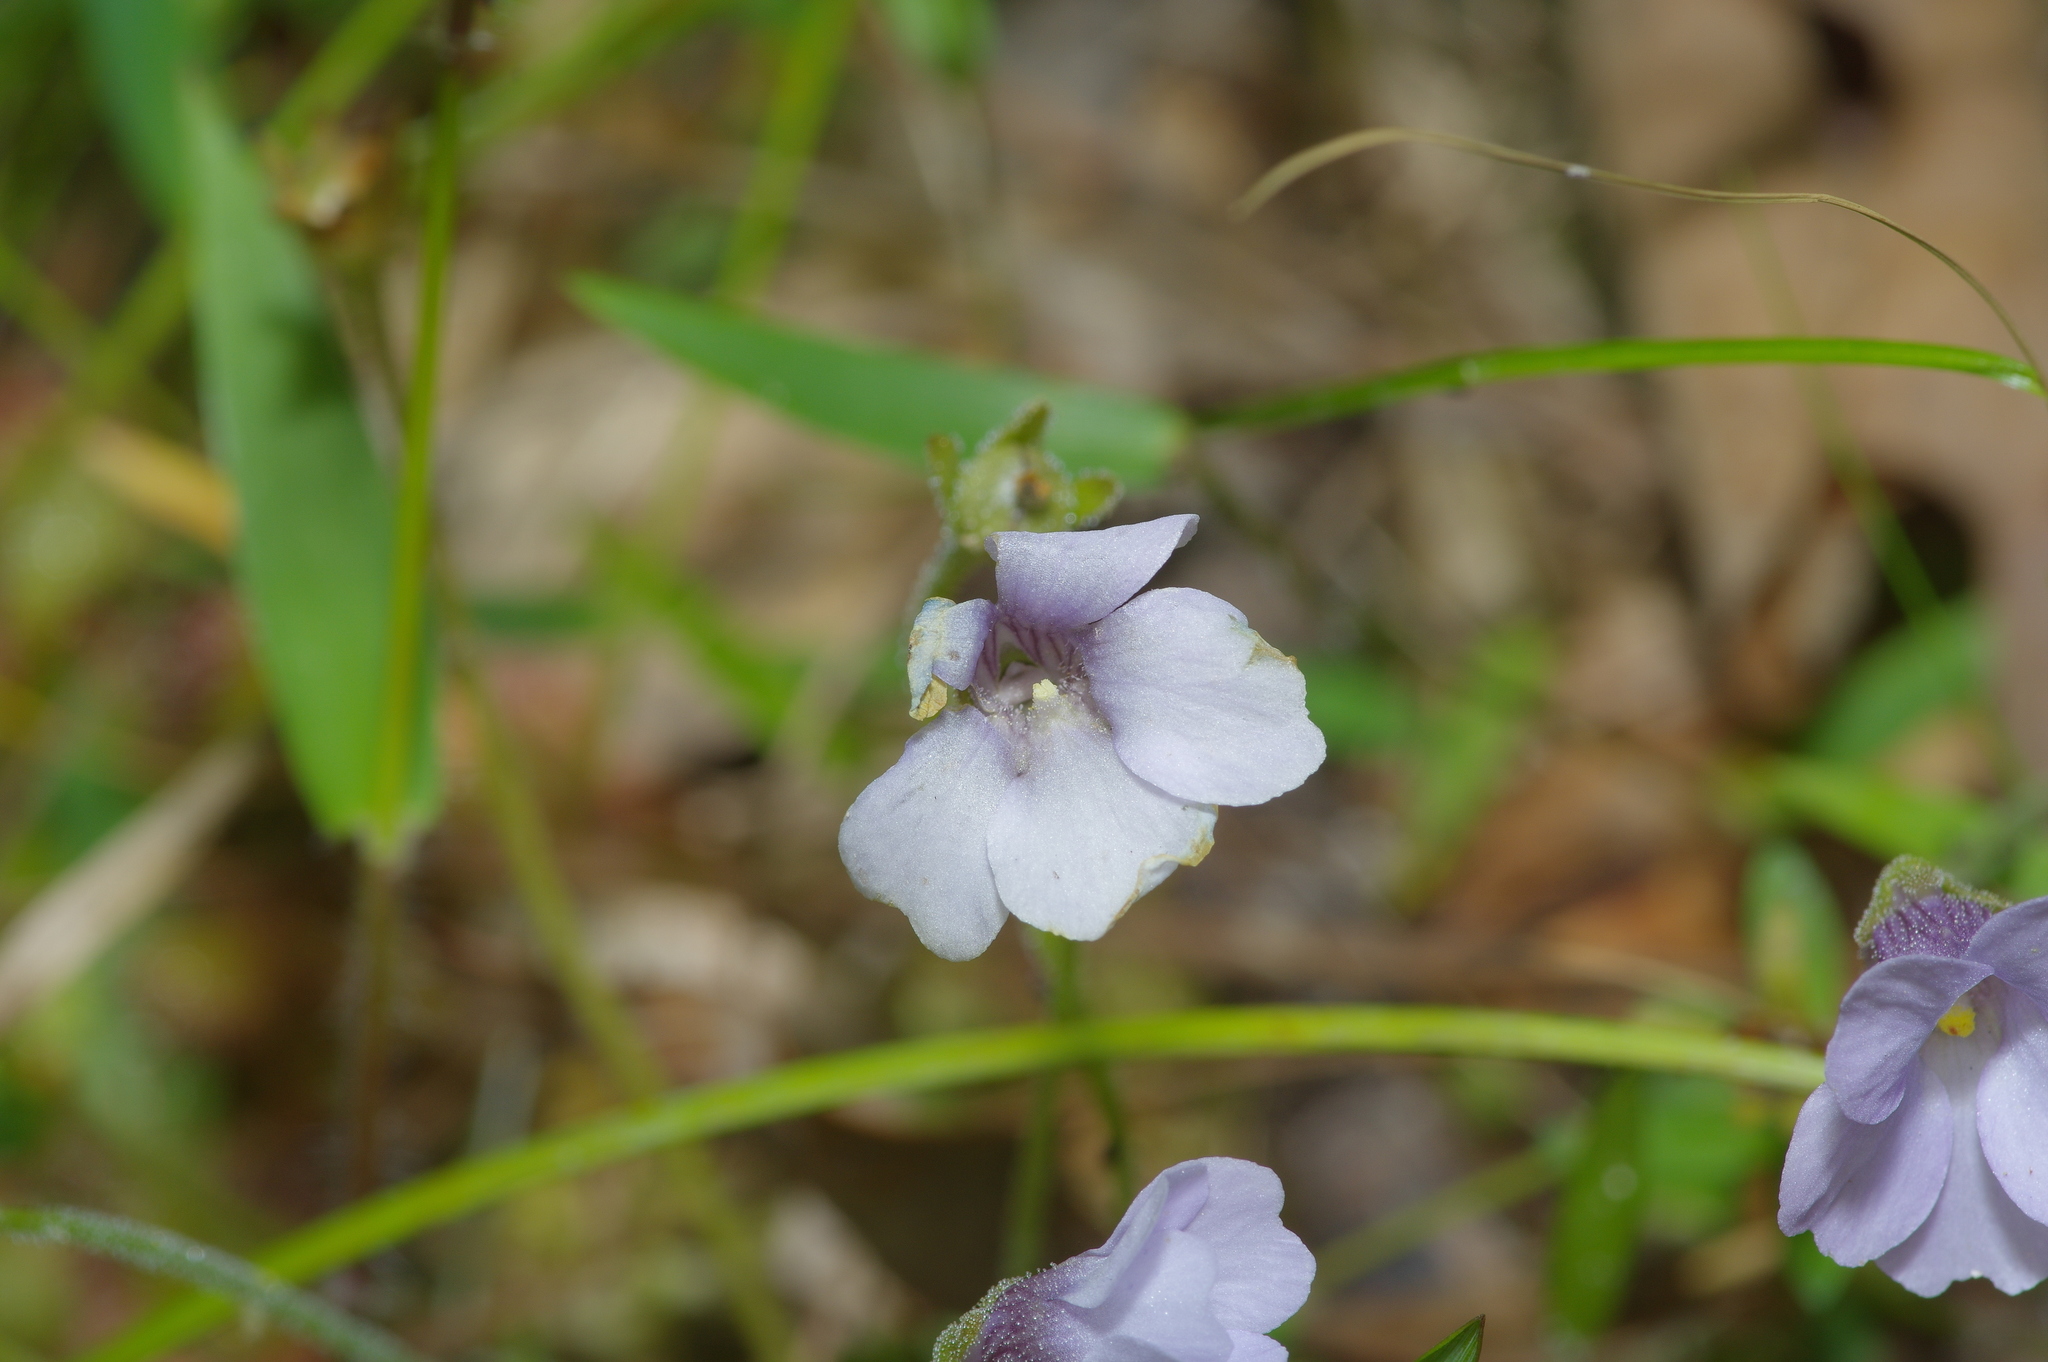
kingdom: Plantae
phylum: Tracheophyta
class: Magnoliopsida
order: Lamiales
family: Lentibulariaceae
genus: Pinguicula
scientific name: Pinguicula pumila
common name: Small butterwort
